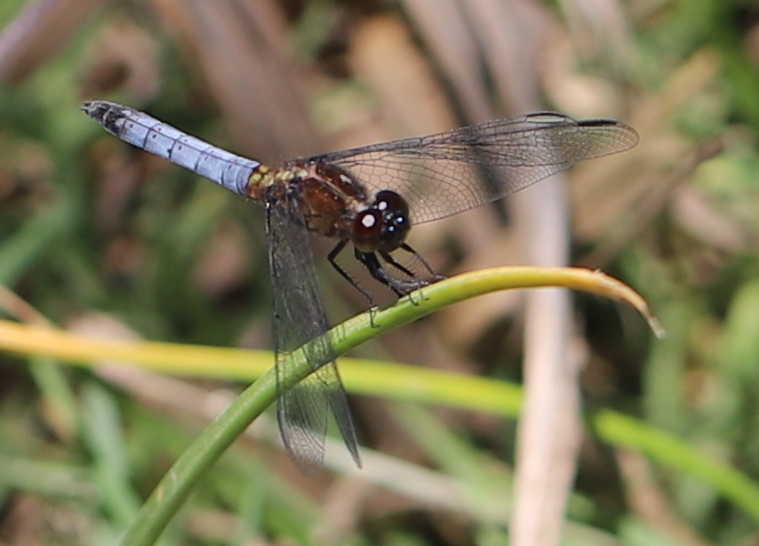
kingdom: Animalia
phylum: Arthropoda
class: Insecta
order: Odonata
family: Libellulidae
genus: Erythrodiplax
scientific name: Erythrodiplax connata
